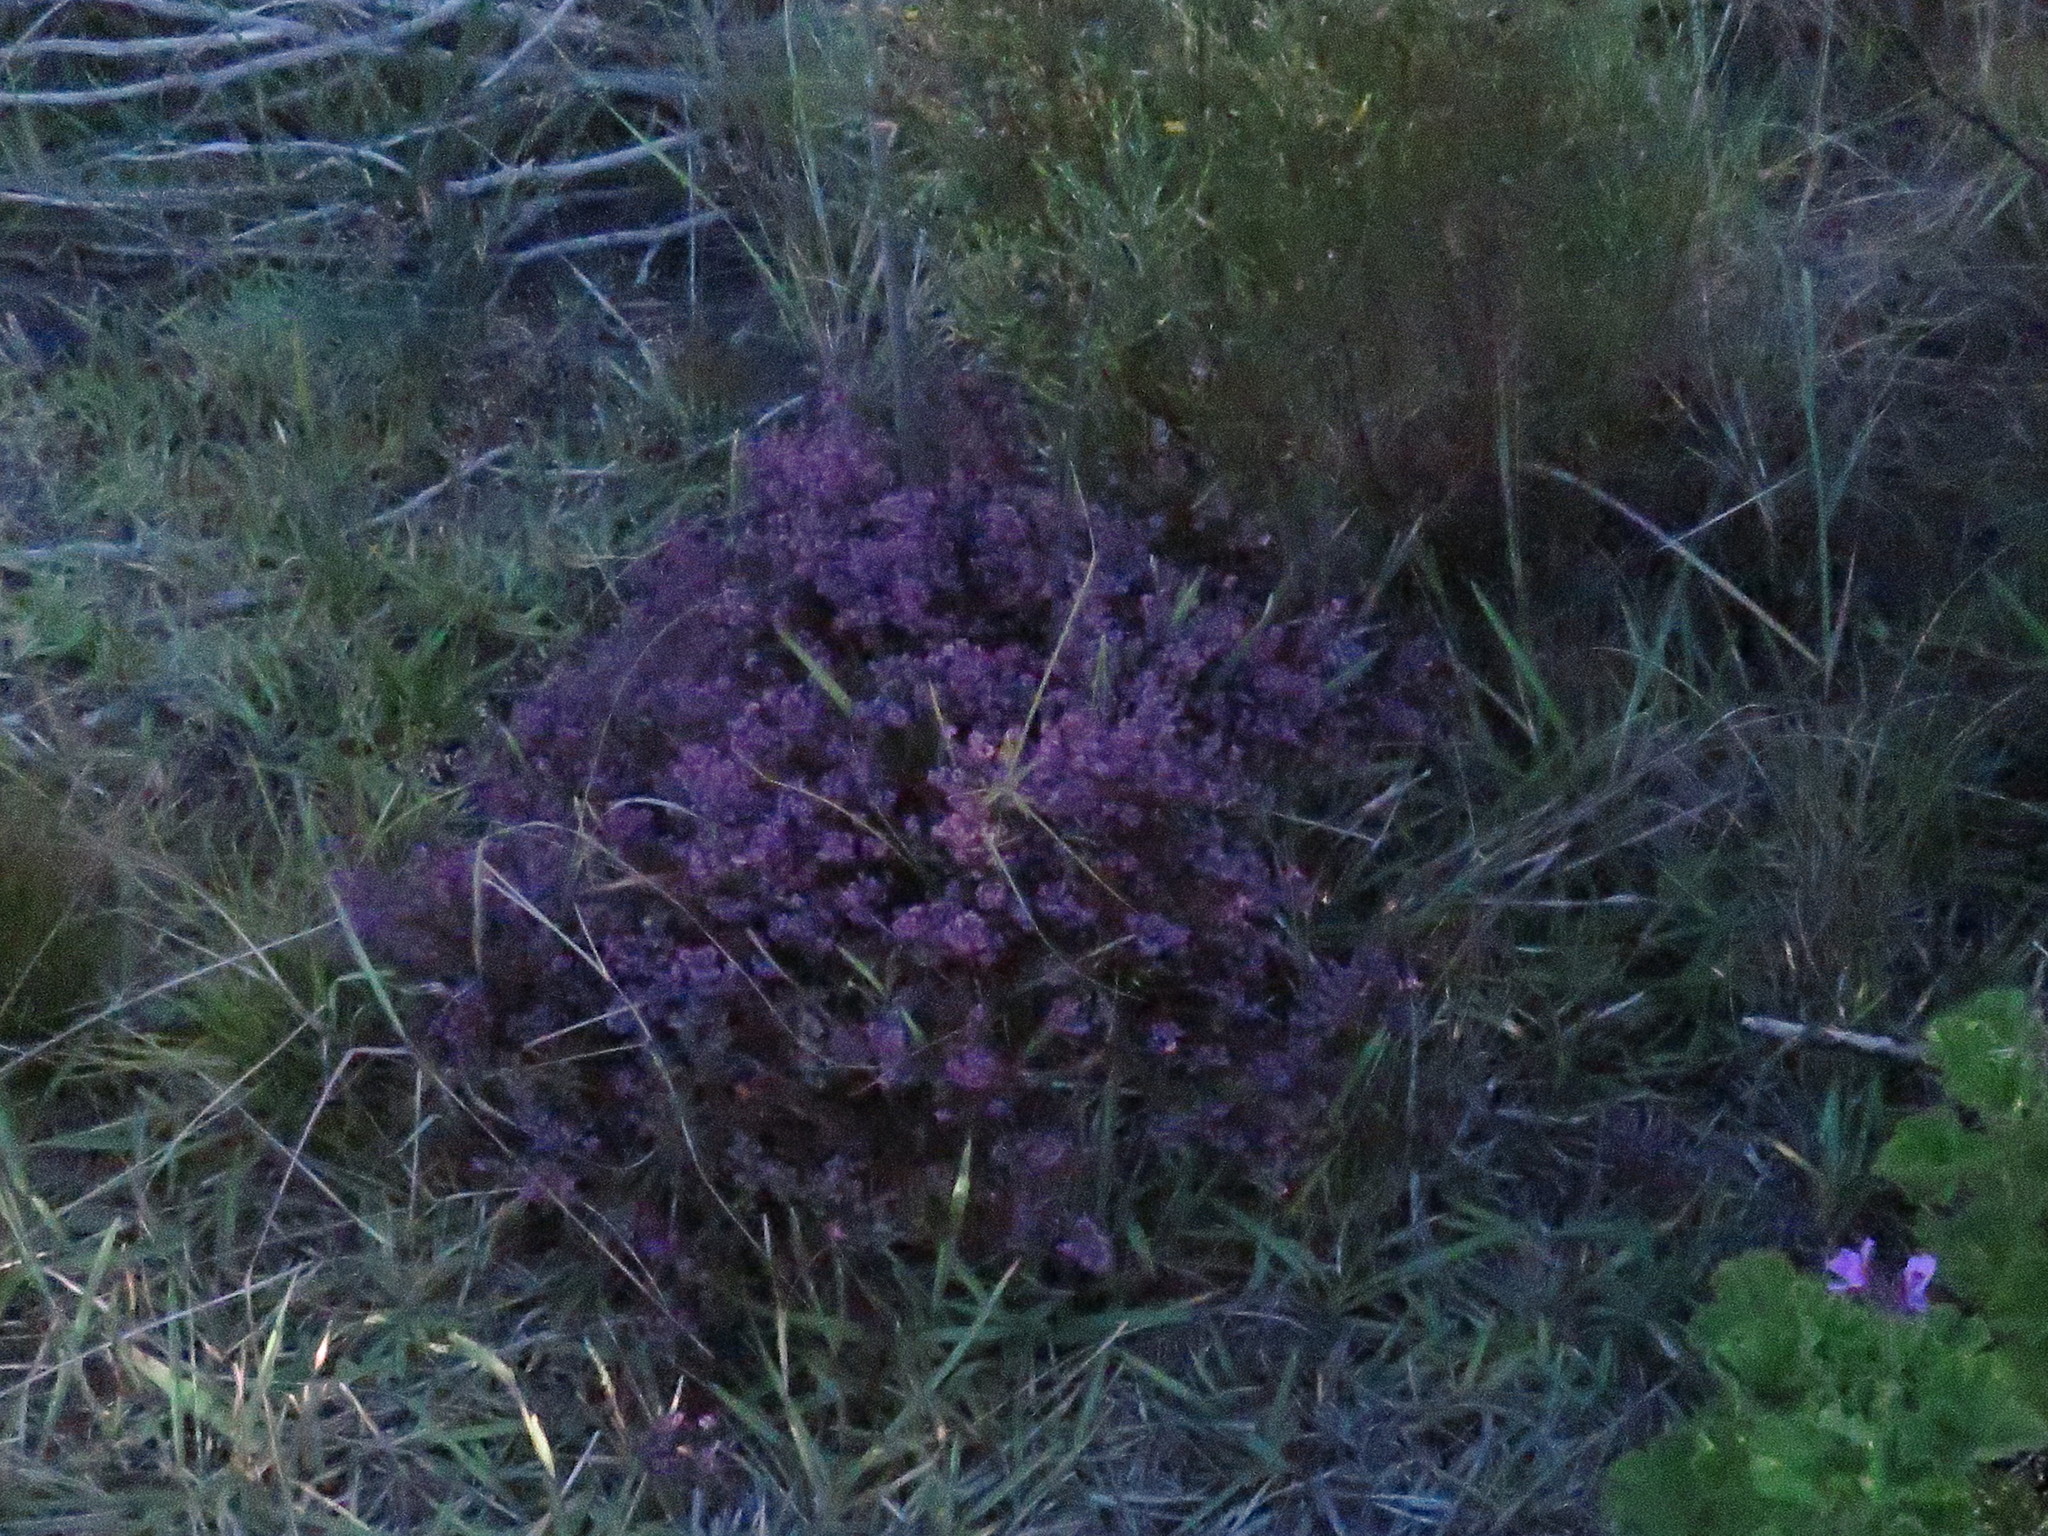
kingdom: Plantae
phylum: Tracheophyta
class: Magnoliopsida
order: Ericales
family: Ericaceae
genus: Erica
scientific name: Erica turgida
